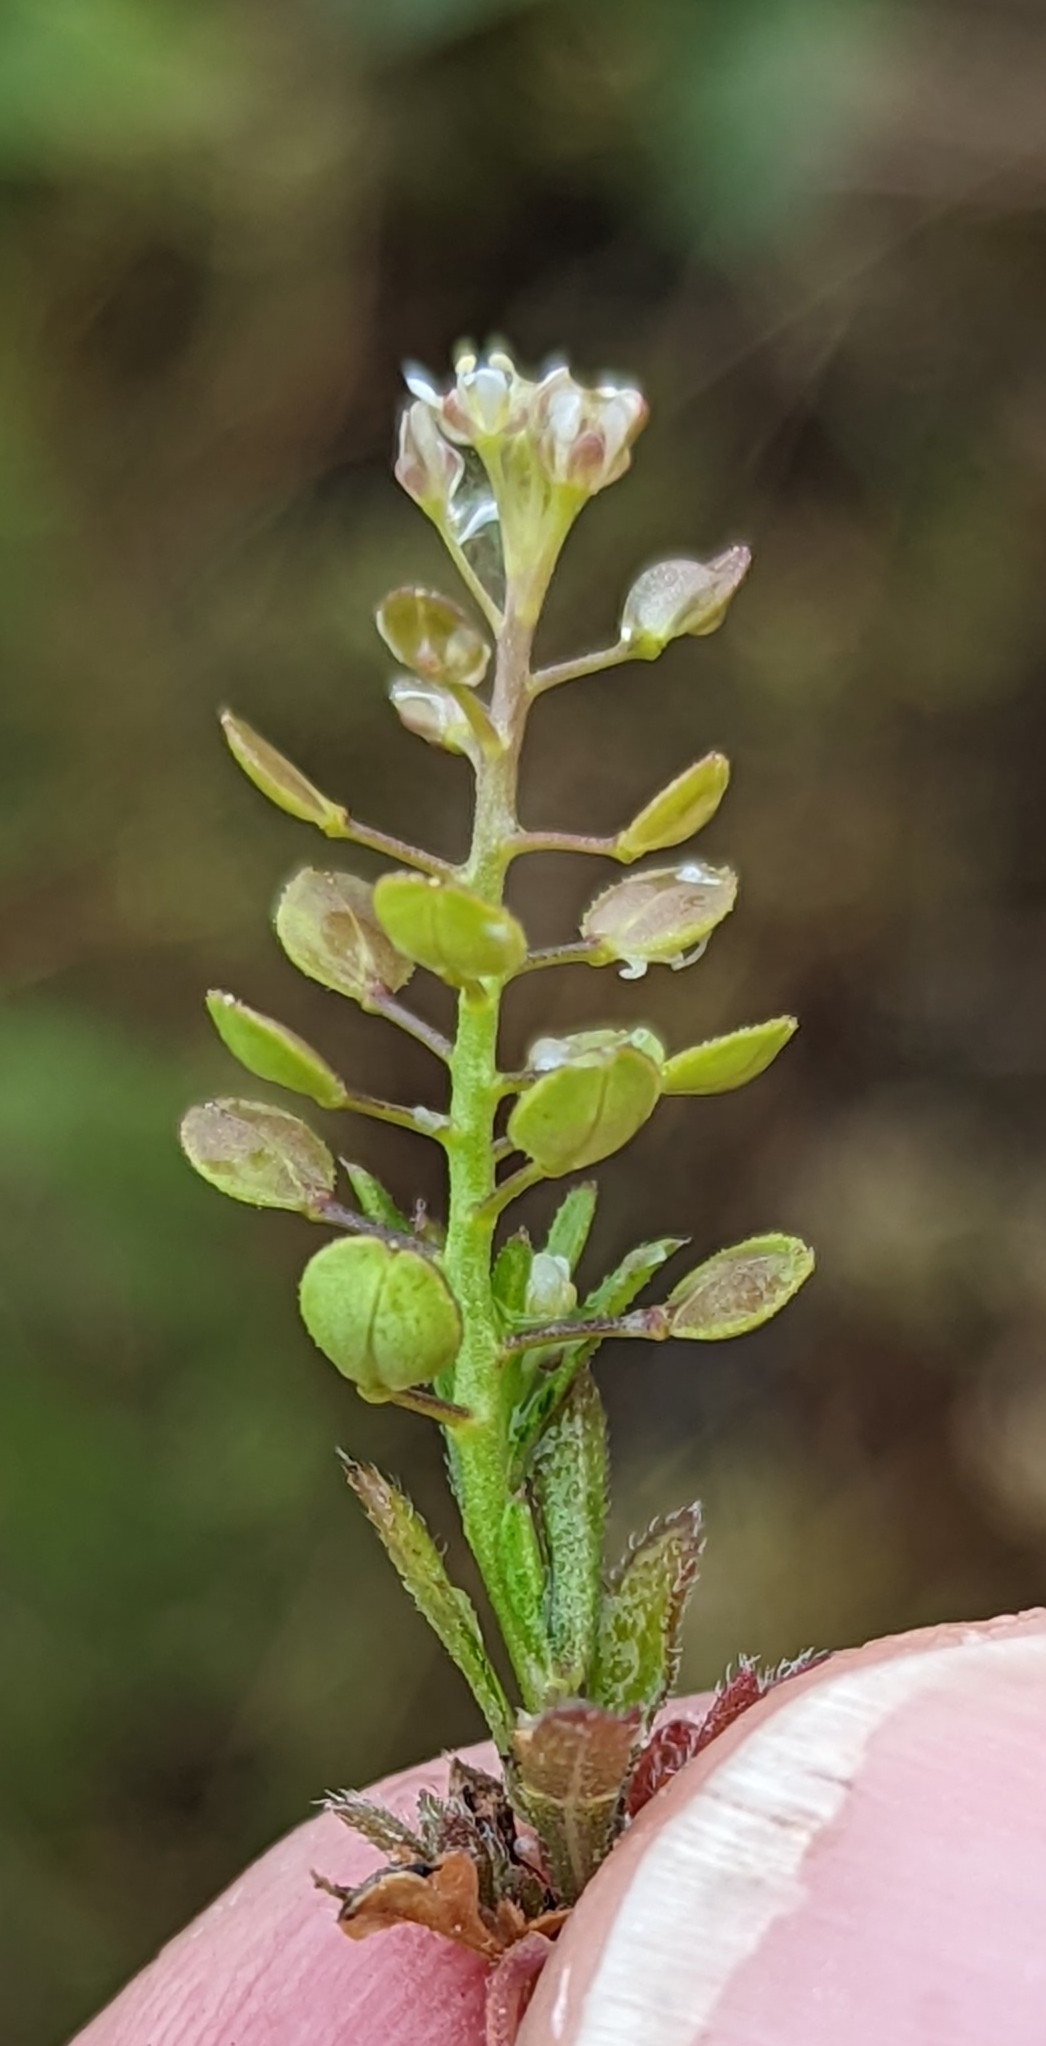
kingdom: Plantae
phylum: Tracheophyta
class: Magnoliopsida
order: Brassicales
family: Brassicaceae
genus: Lepidium
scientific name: Lepidium virginicum
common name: Least pepperwort
